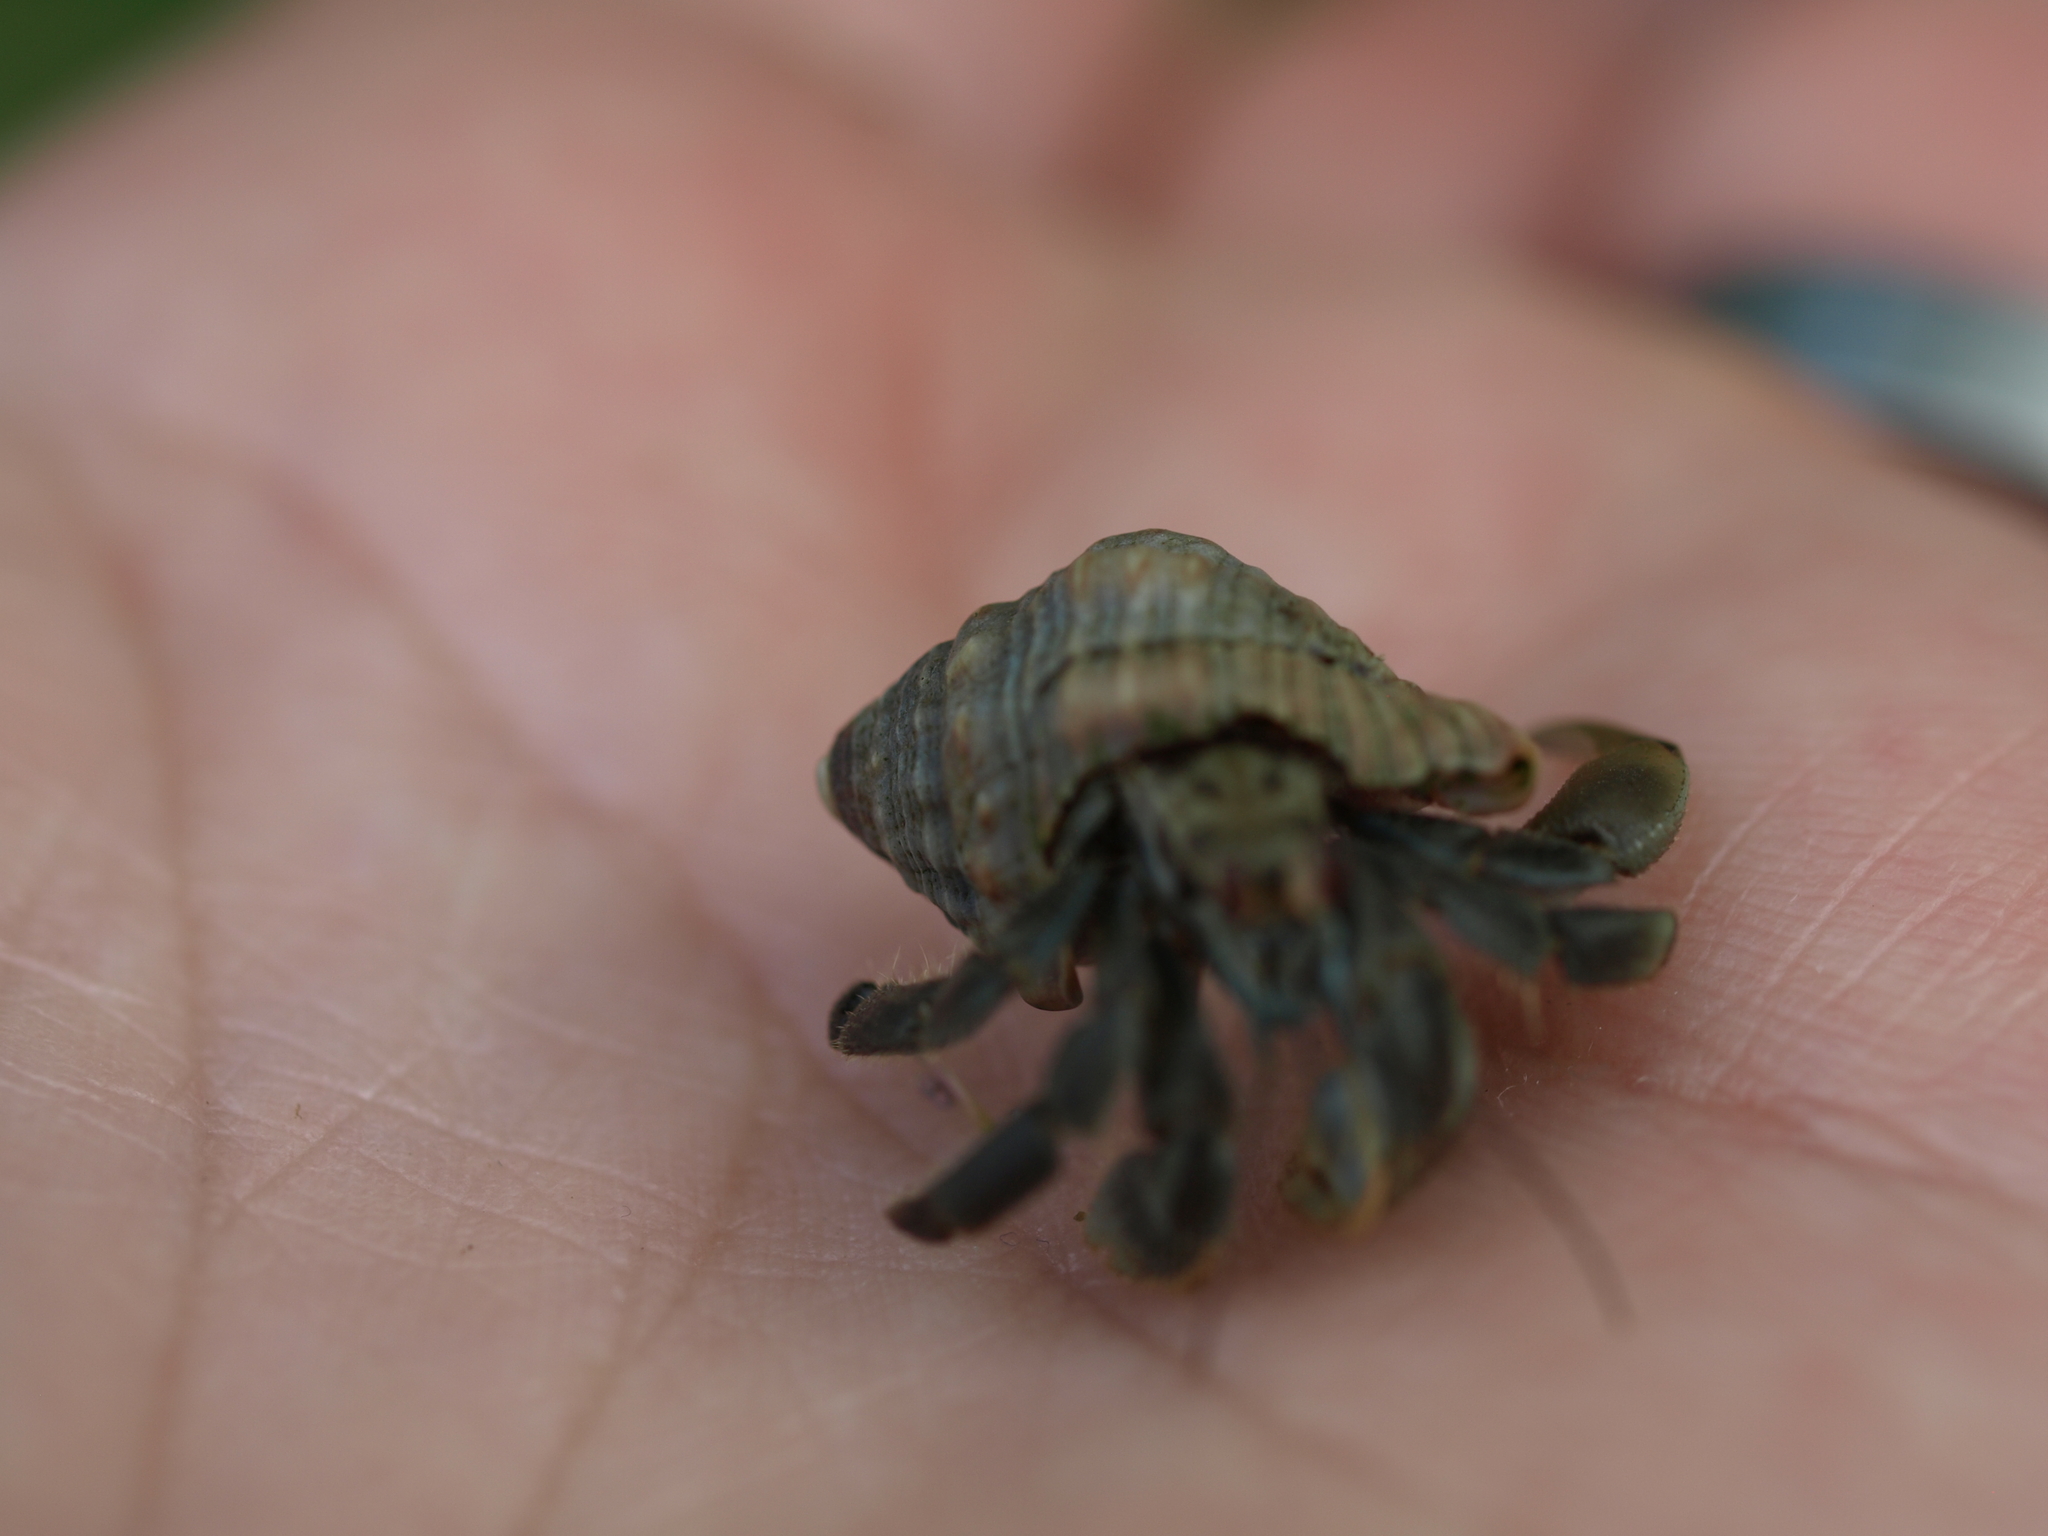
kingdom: Animalia
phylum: Arthropoda
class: Malacostraca
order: Decapoda
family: Coenobitidae
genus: Coenobita
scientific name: Coenobita compressus
